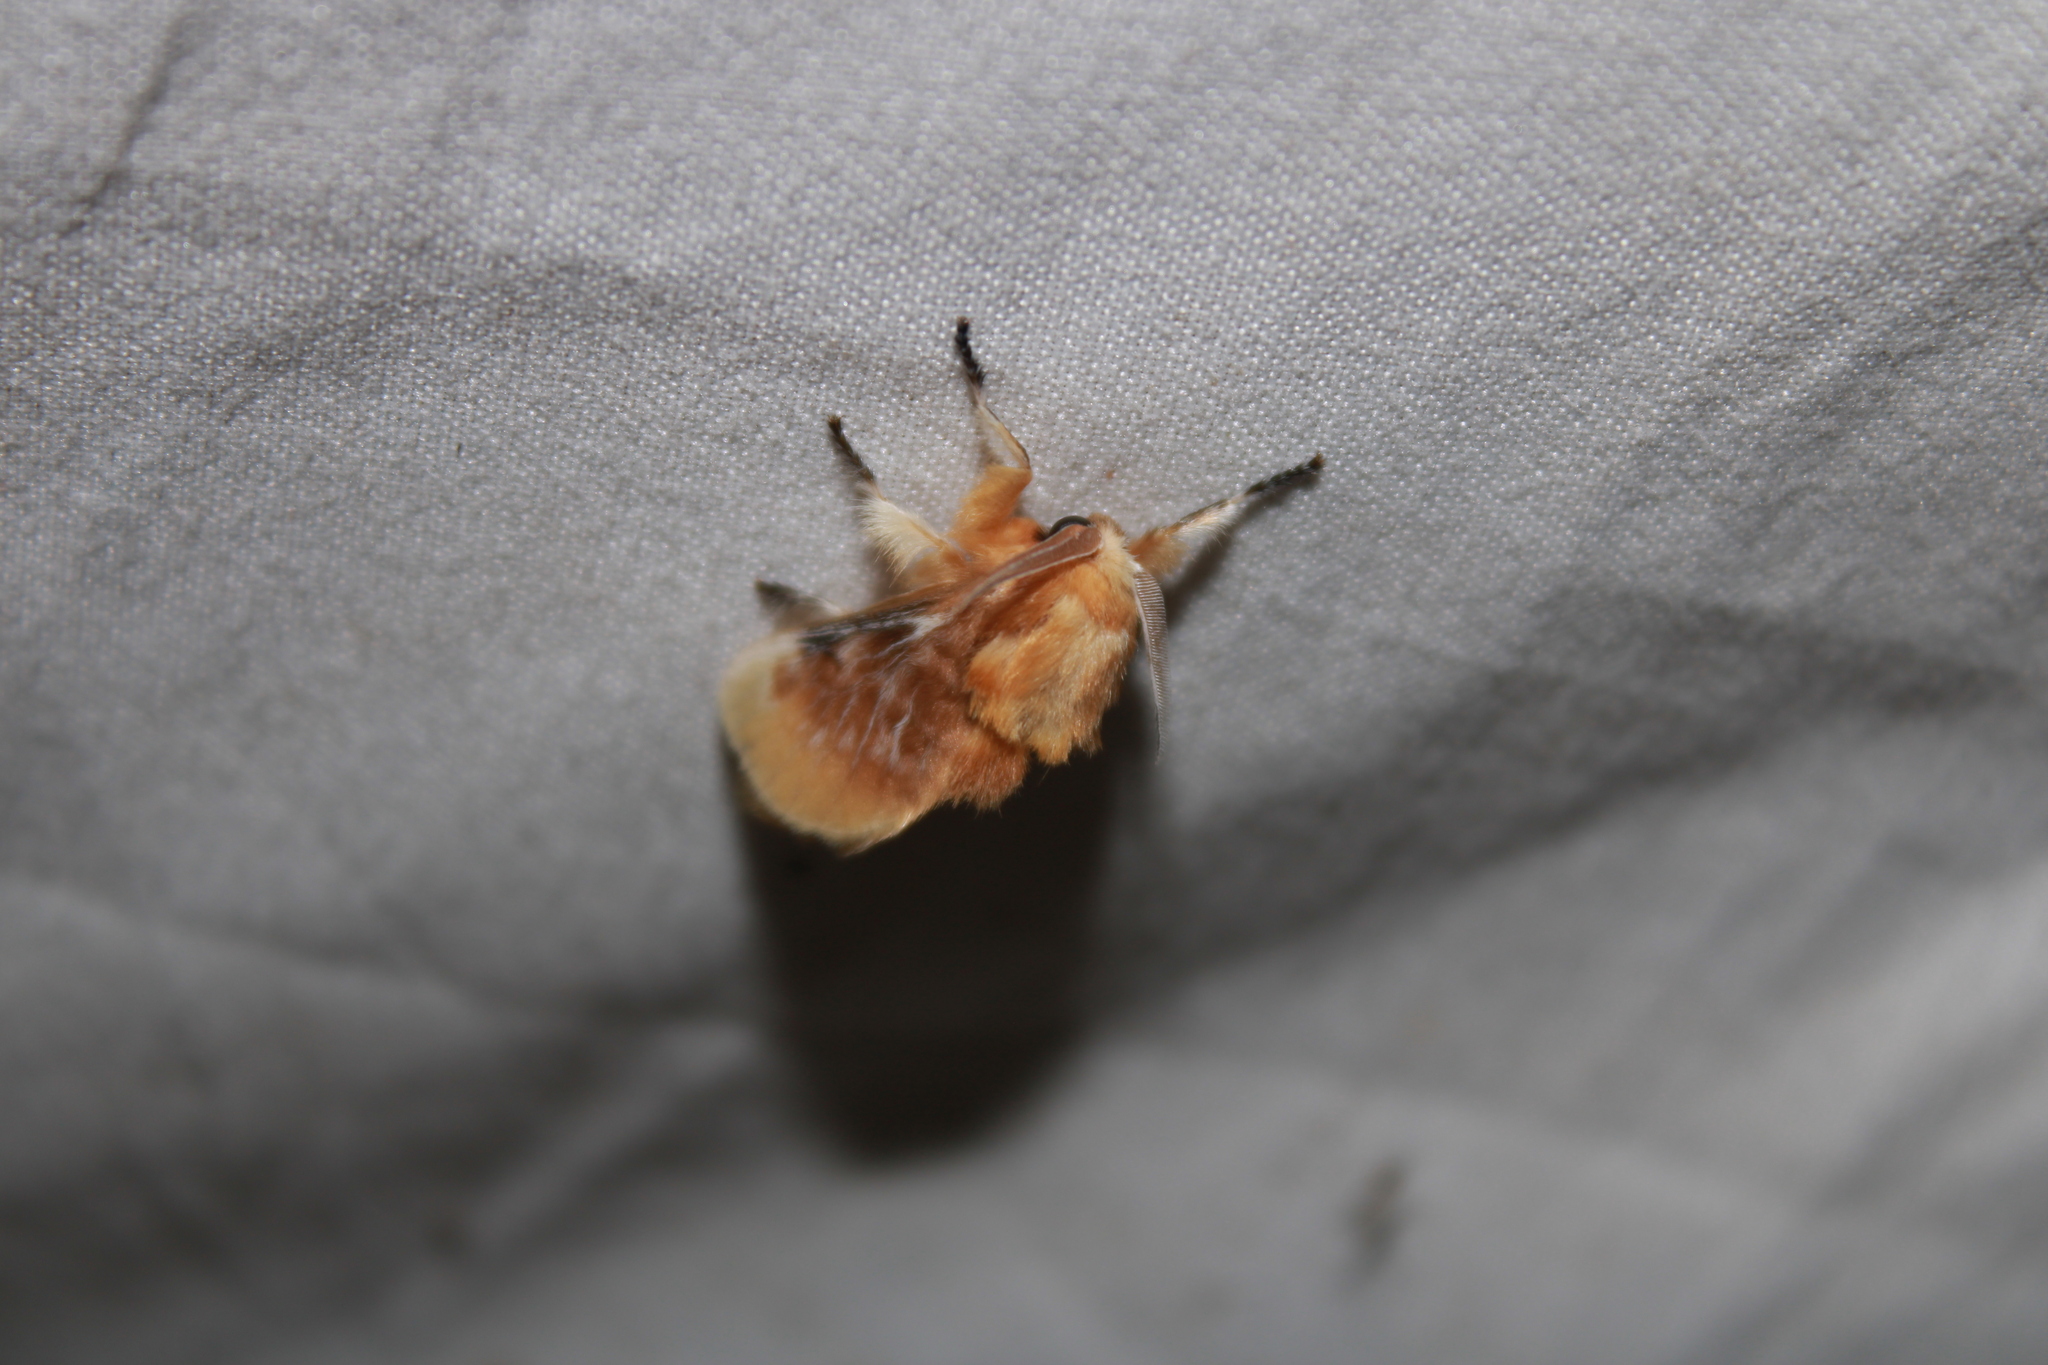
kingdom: Animalia
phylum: Arthropoda
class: Insecta
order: Lepidoptera
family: Megalopygidae
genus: Megalopyge
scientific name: Megalopyge opercularis
